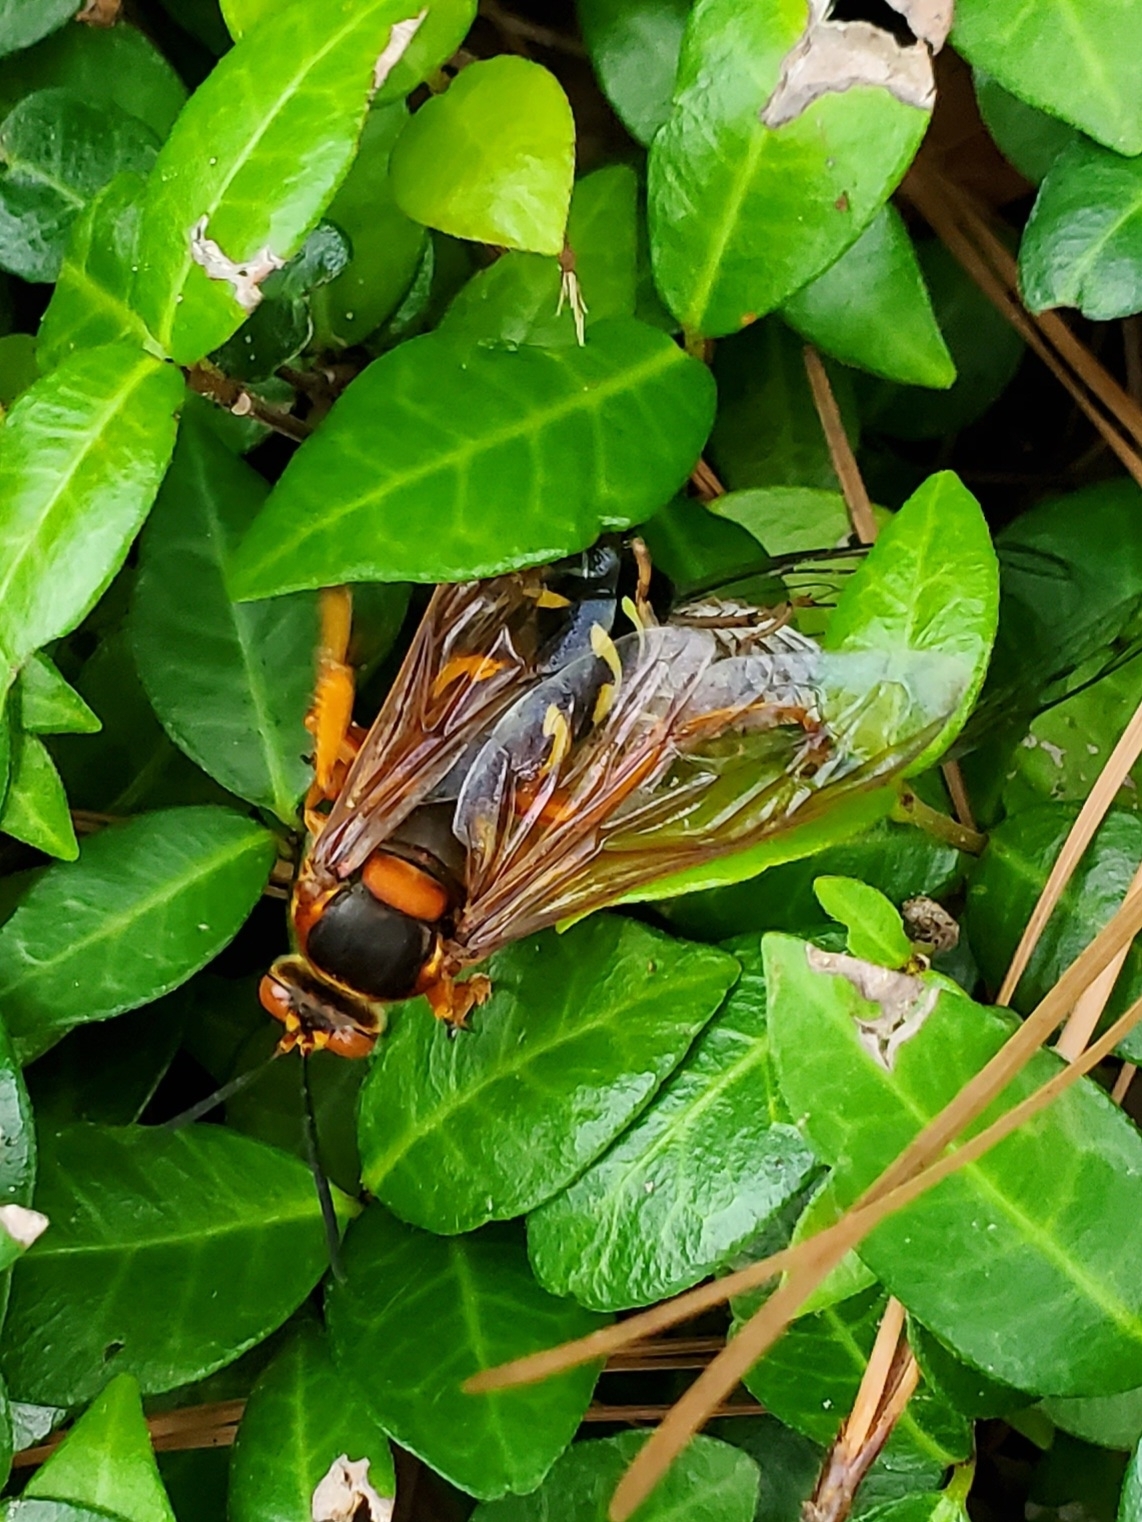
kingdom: Animalia
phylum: Arthropoda
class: Insecta
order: Hymenoptera
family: Crabronidae
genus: Sphecius
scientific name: Sphecius speciosus
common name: Cicada killer
